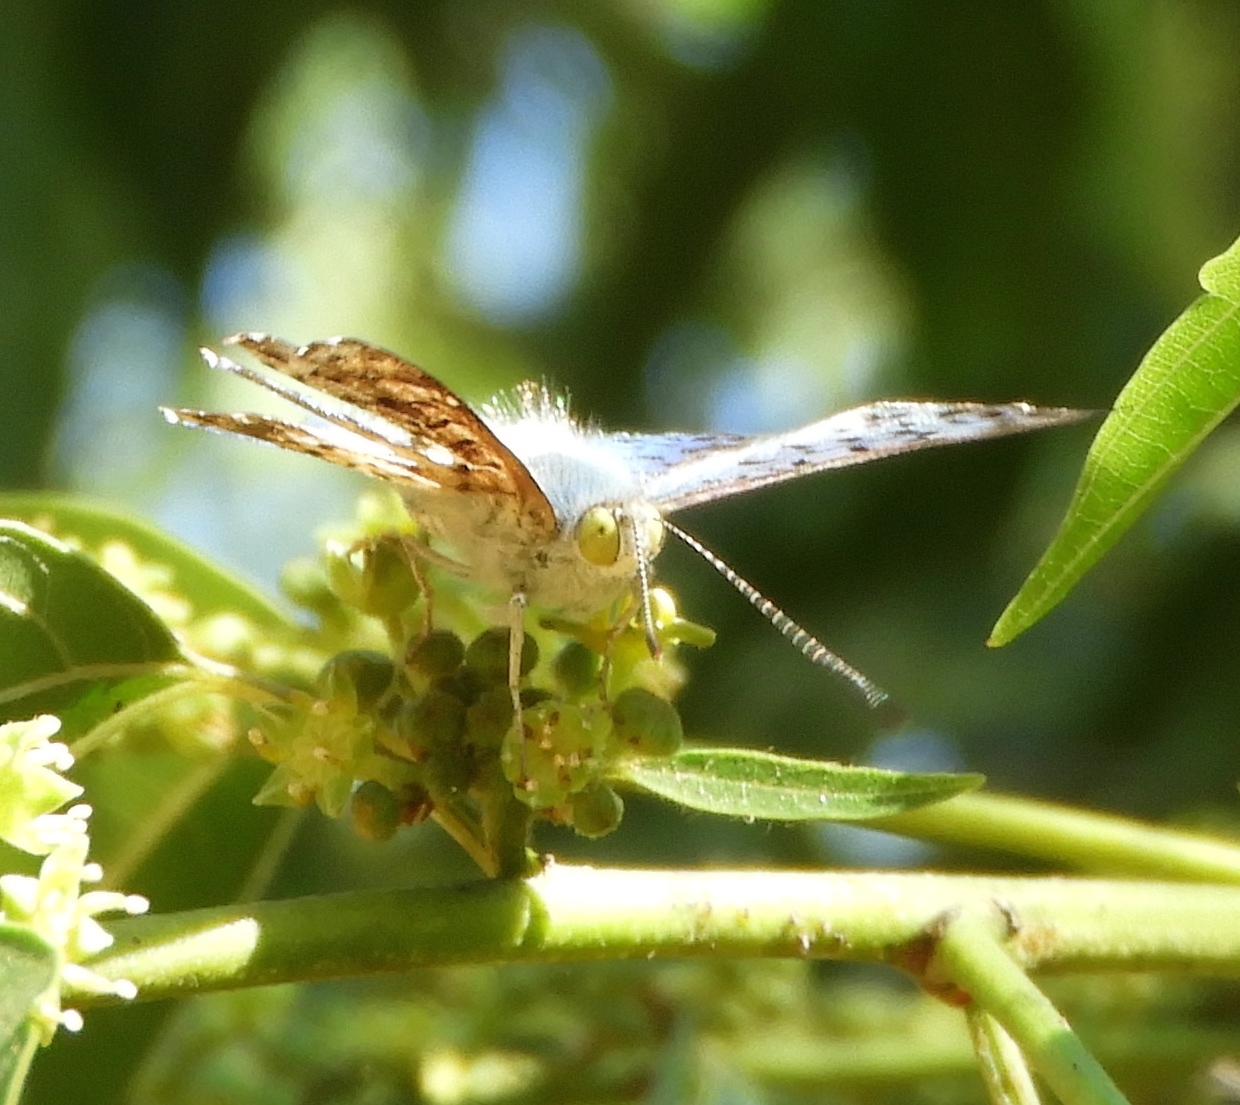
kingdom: Animalia
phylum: Arthropoda
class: Insecta
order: Lepidoptera
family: Riodinidae
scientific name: Riodinidae
